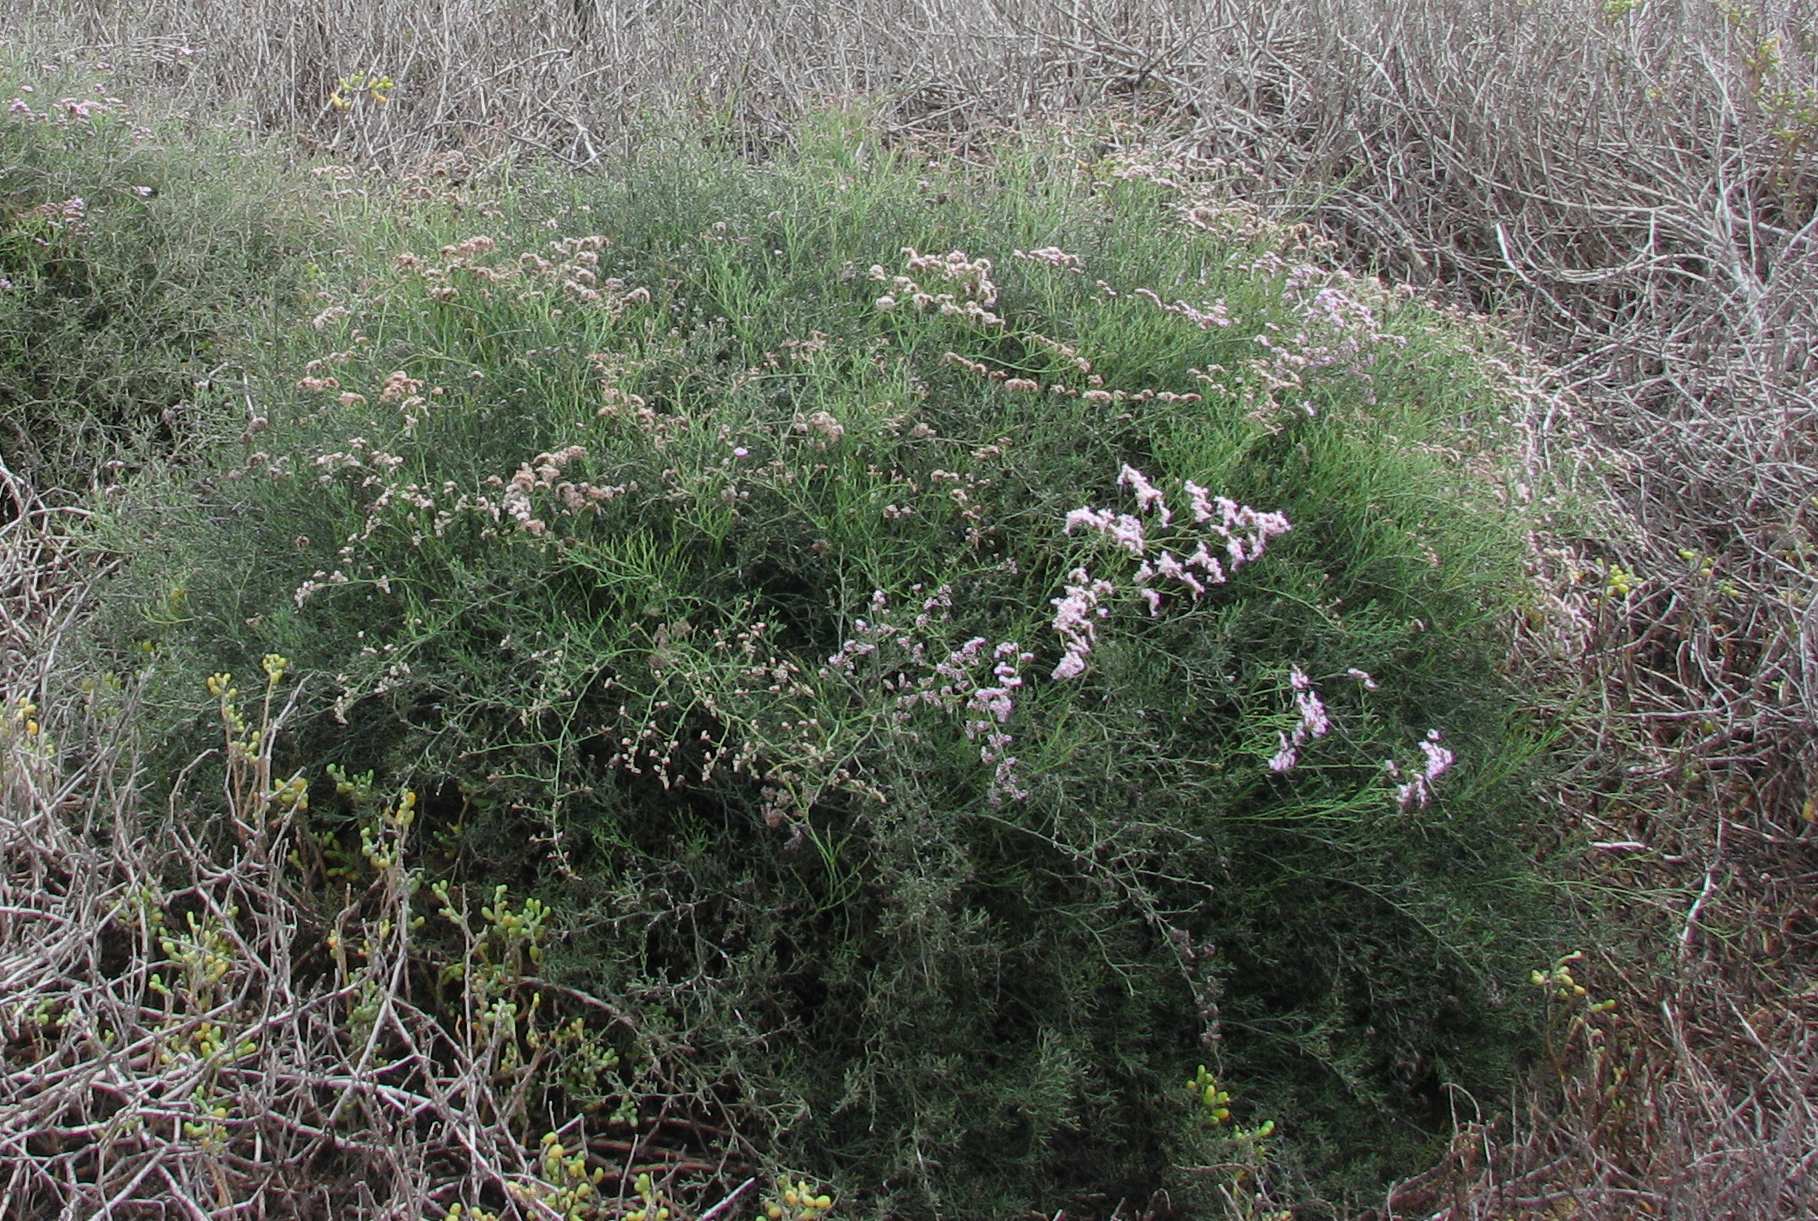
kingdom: Plantae
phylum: Tracheophyta
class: Magnoliopsida
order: Caryophyllales
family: Plumbaginaceae
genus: Limonium
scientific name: Limonium tuberculatum
